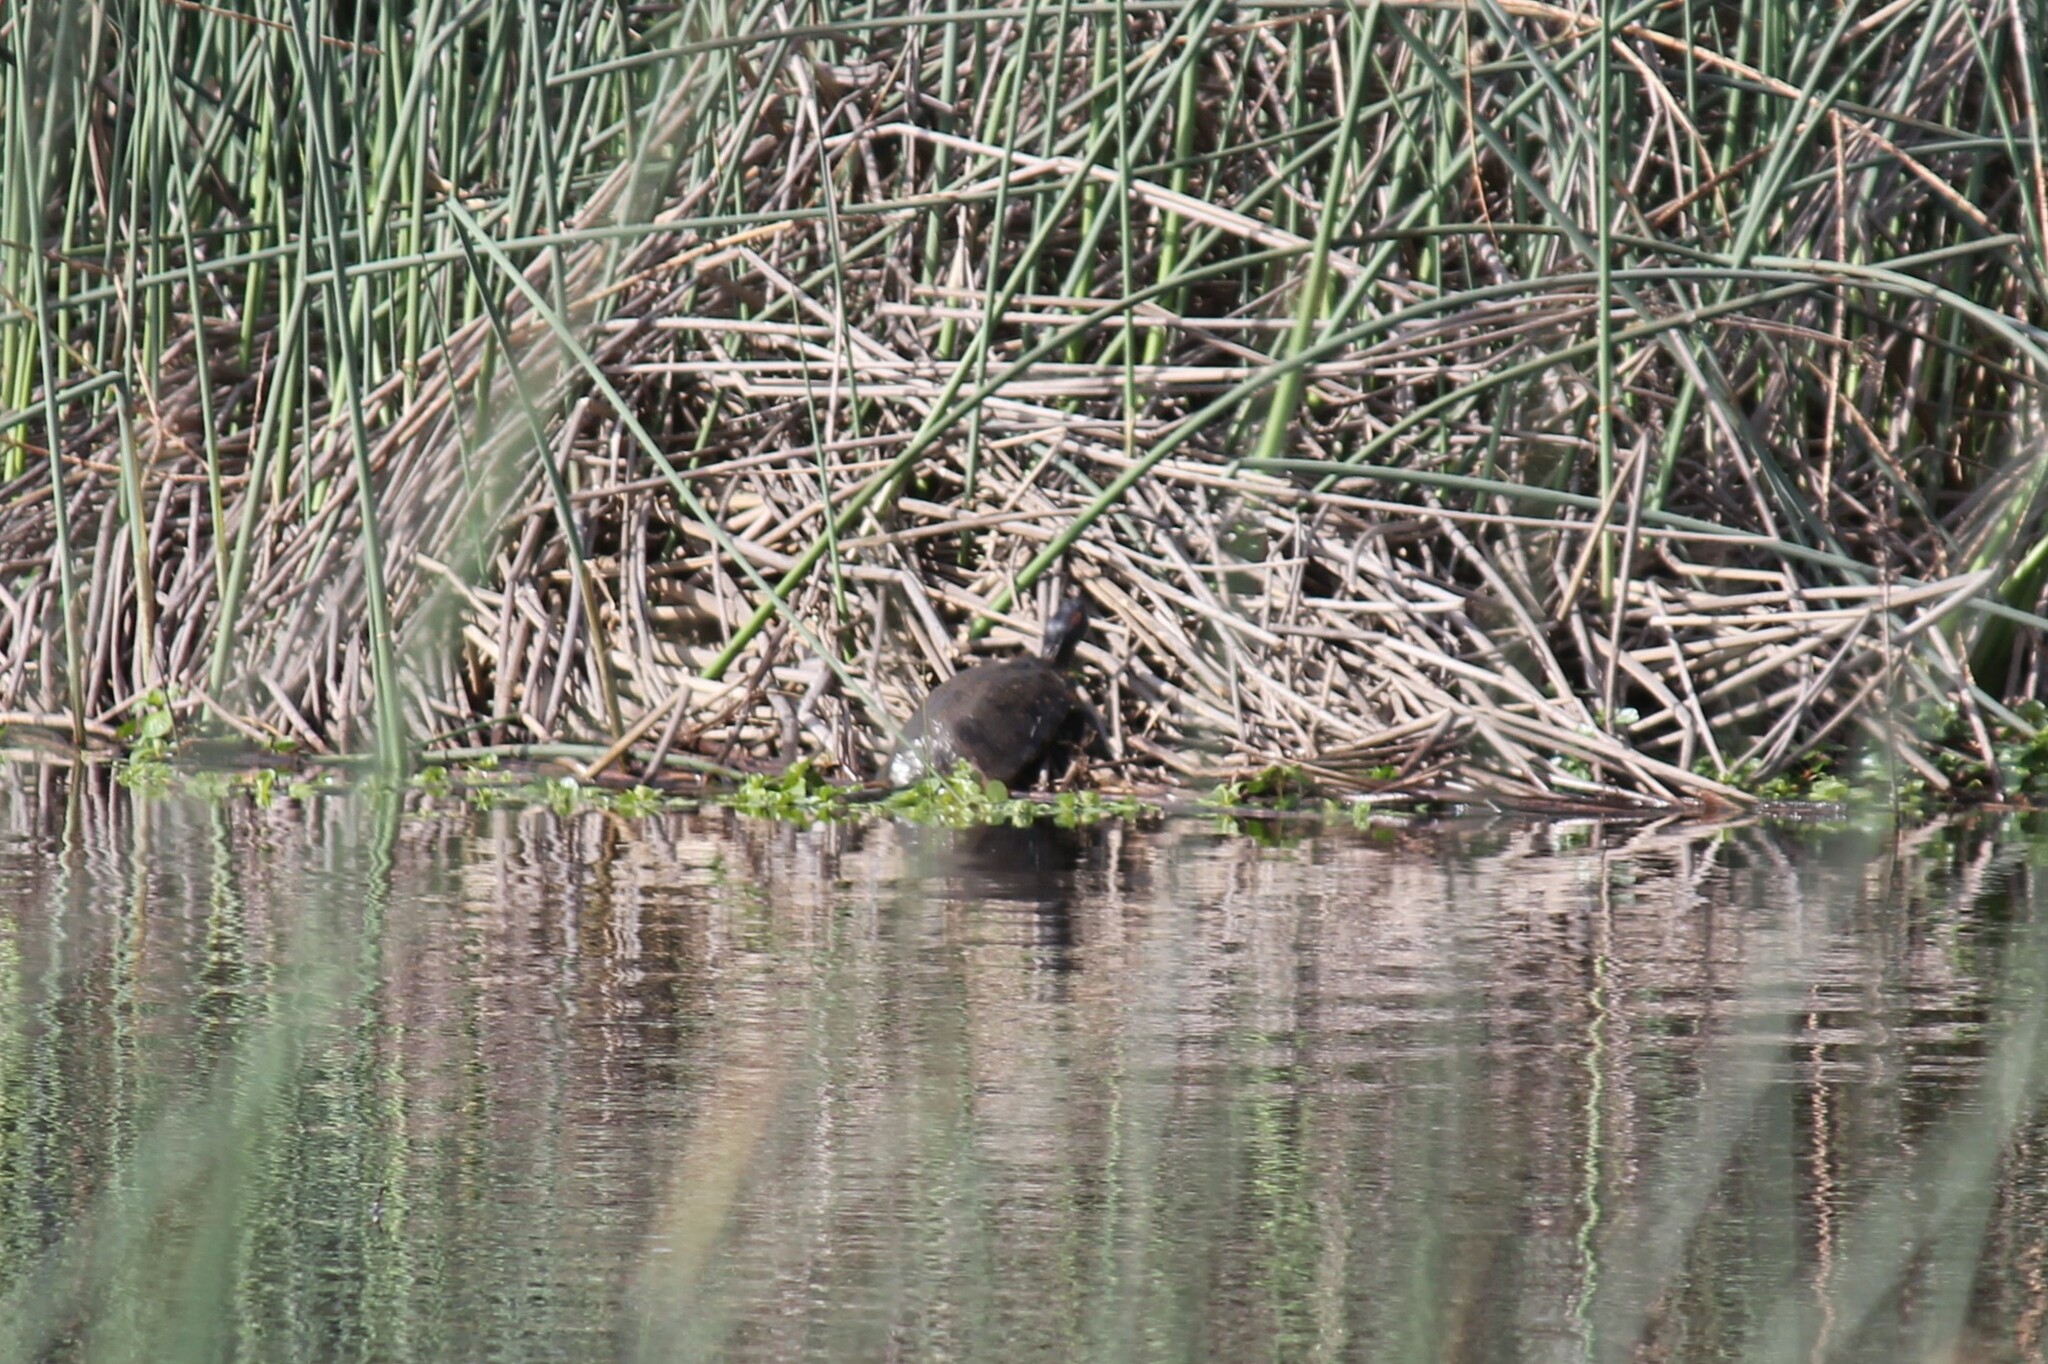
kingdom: Animalia
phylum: Chordata
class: Testudines
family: Emydidae
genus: Trachemys
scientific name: Trachemys scripta
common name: Slider
